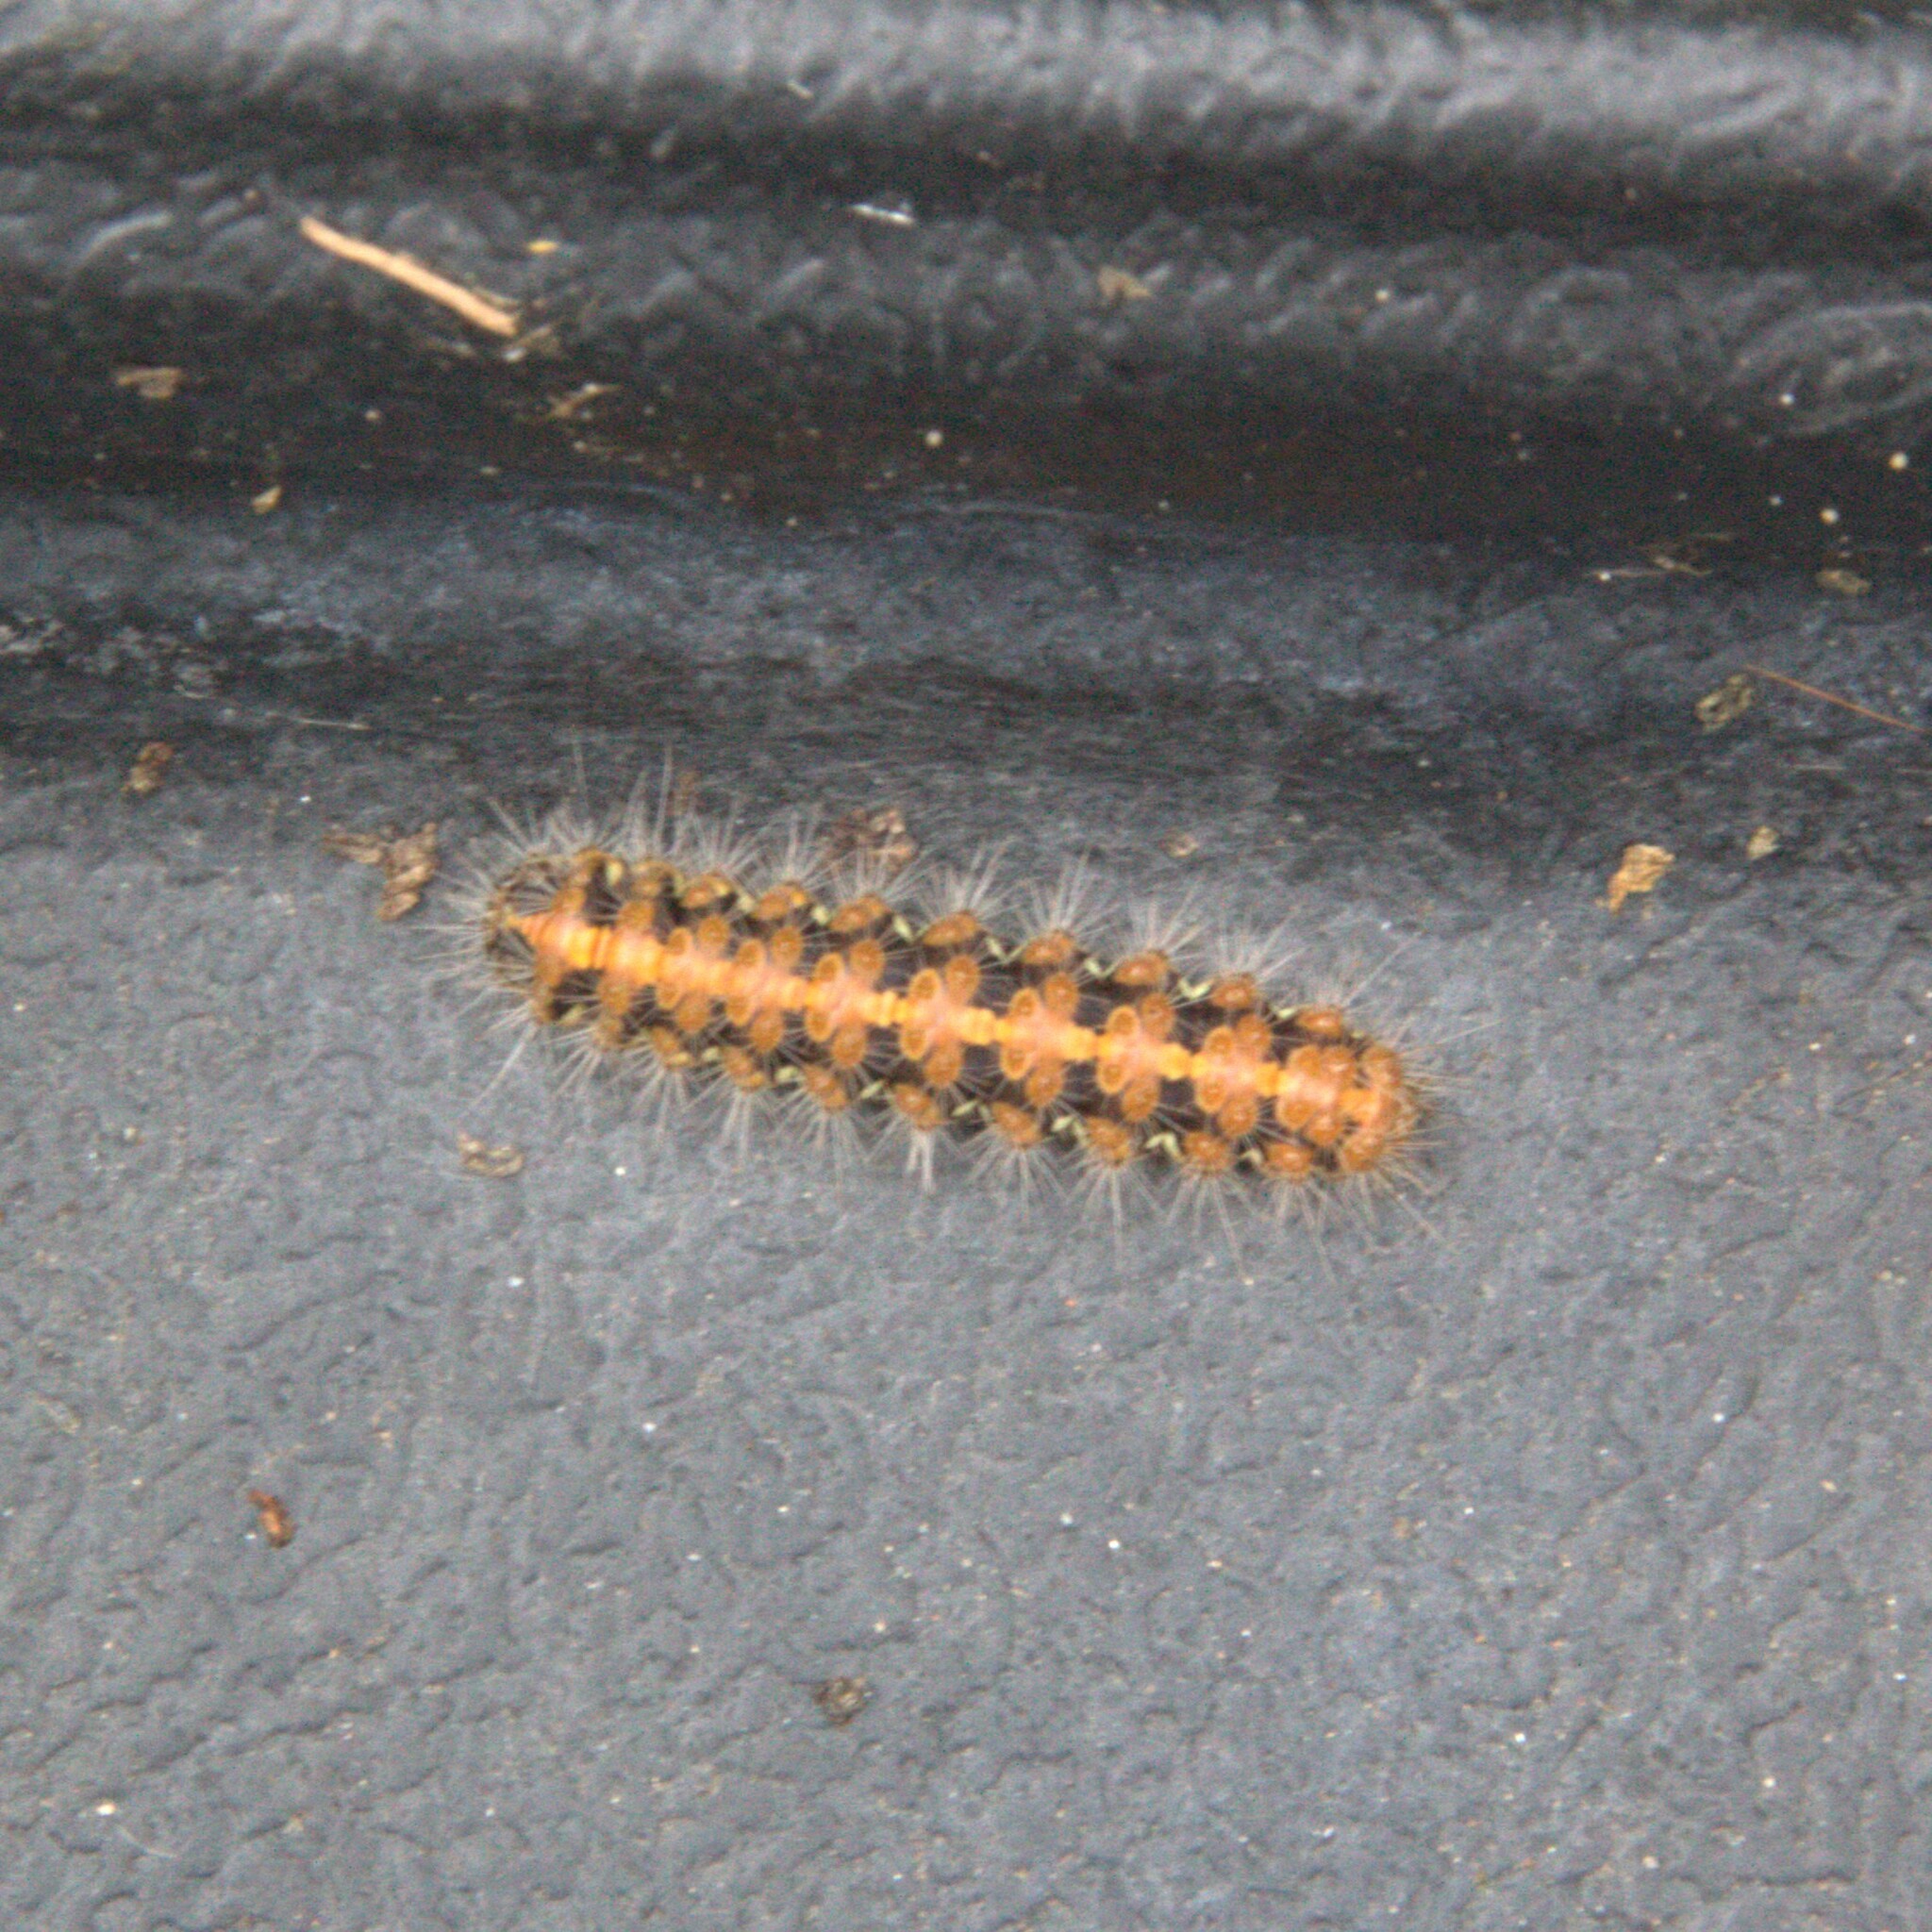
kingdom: Animalia
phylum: Arthropoda
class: Insecta
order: Lepidoptera
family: Erebidae
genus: Euplagia
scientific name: Euplagia quadripunctaria
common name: Jersey tiger
